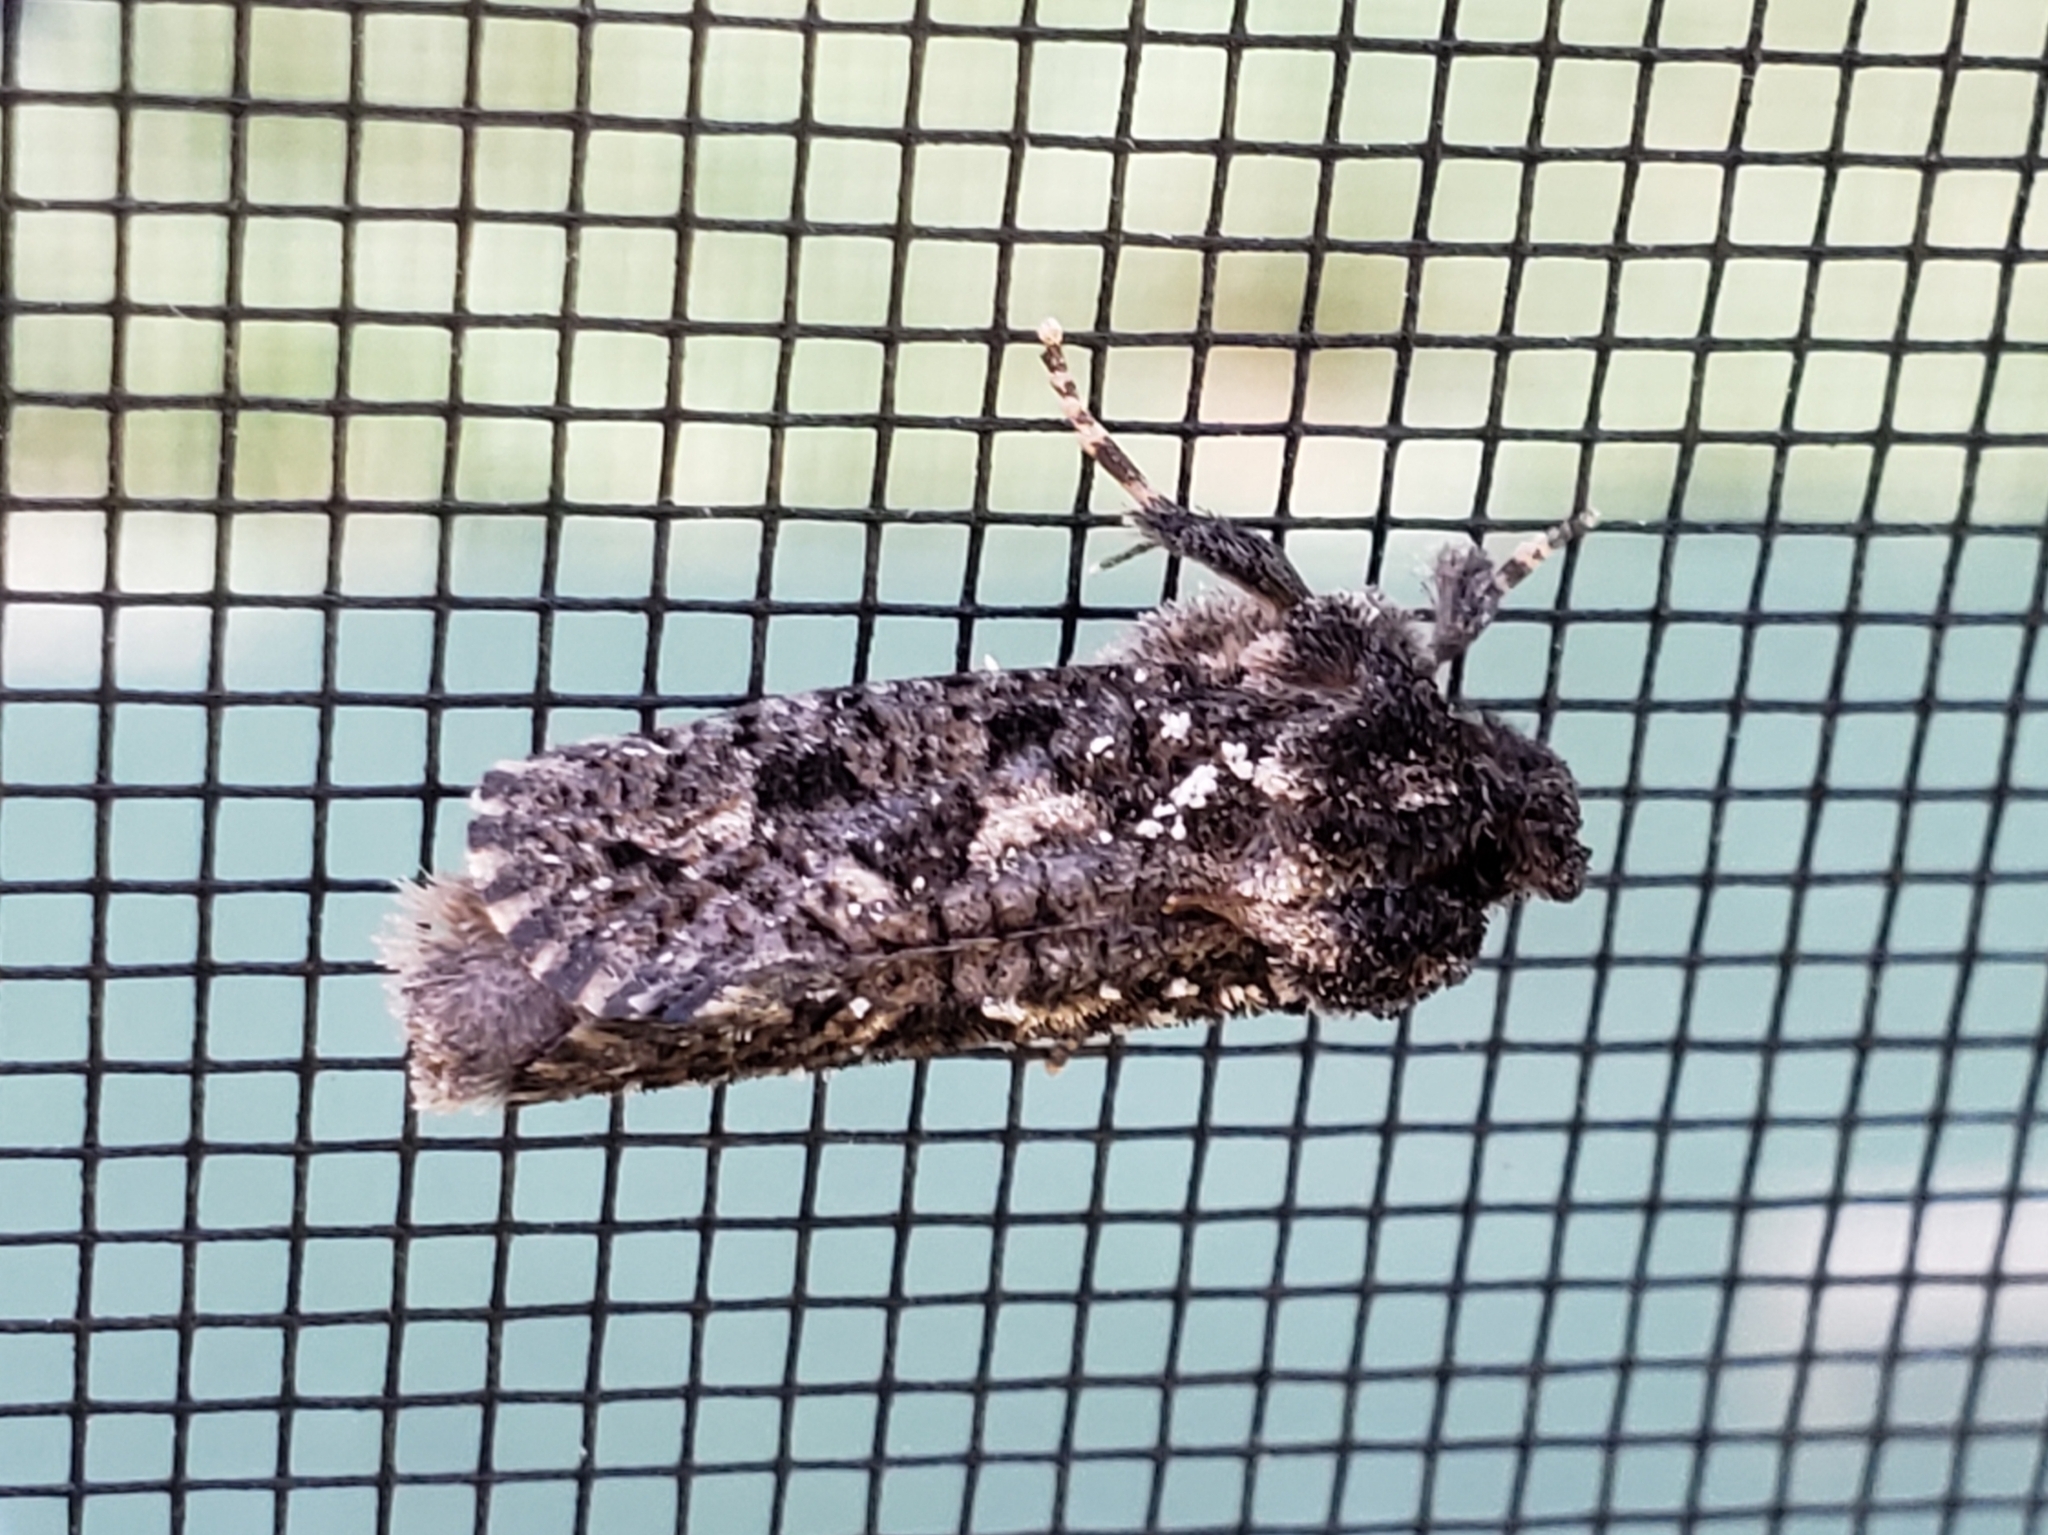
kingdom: Animalia
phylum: Arthropoda
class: Insecta
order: Lepidoptera
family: Tineidae
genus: Acrolophus
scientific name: Acrolophus arcanella
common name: Arcane grass tubeworm moth
